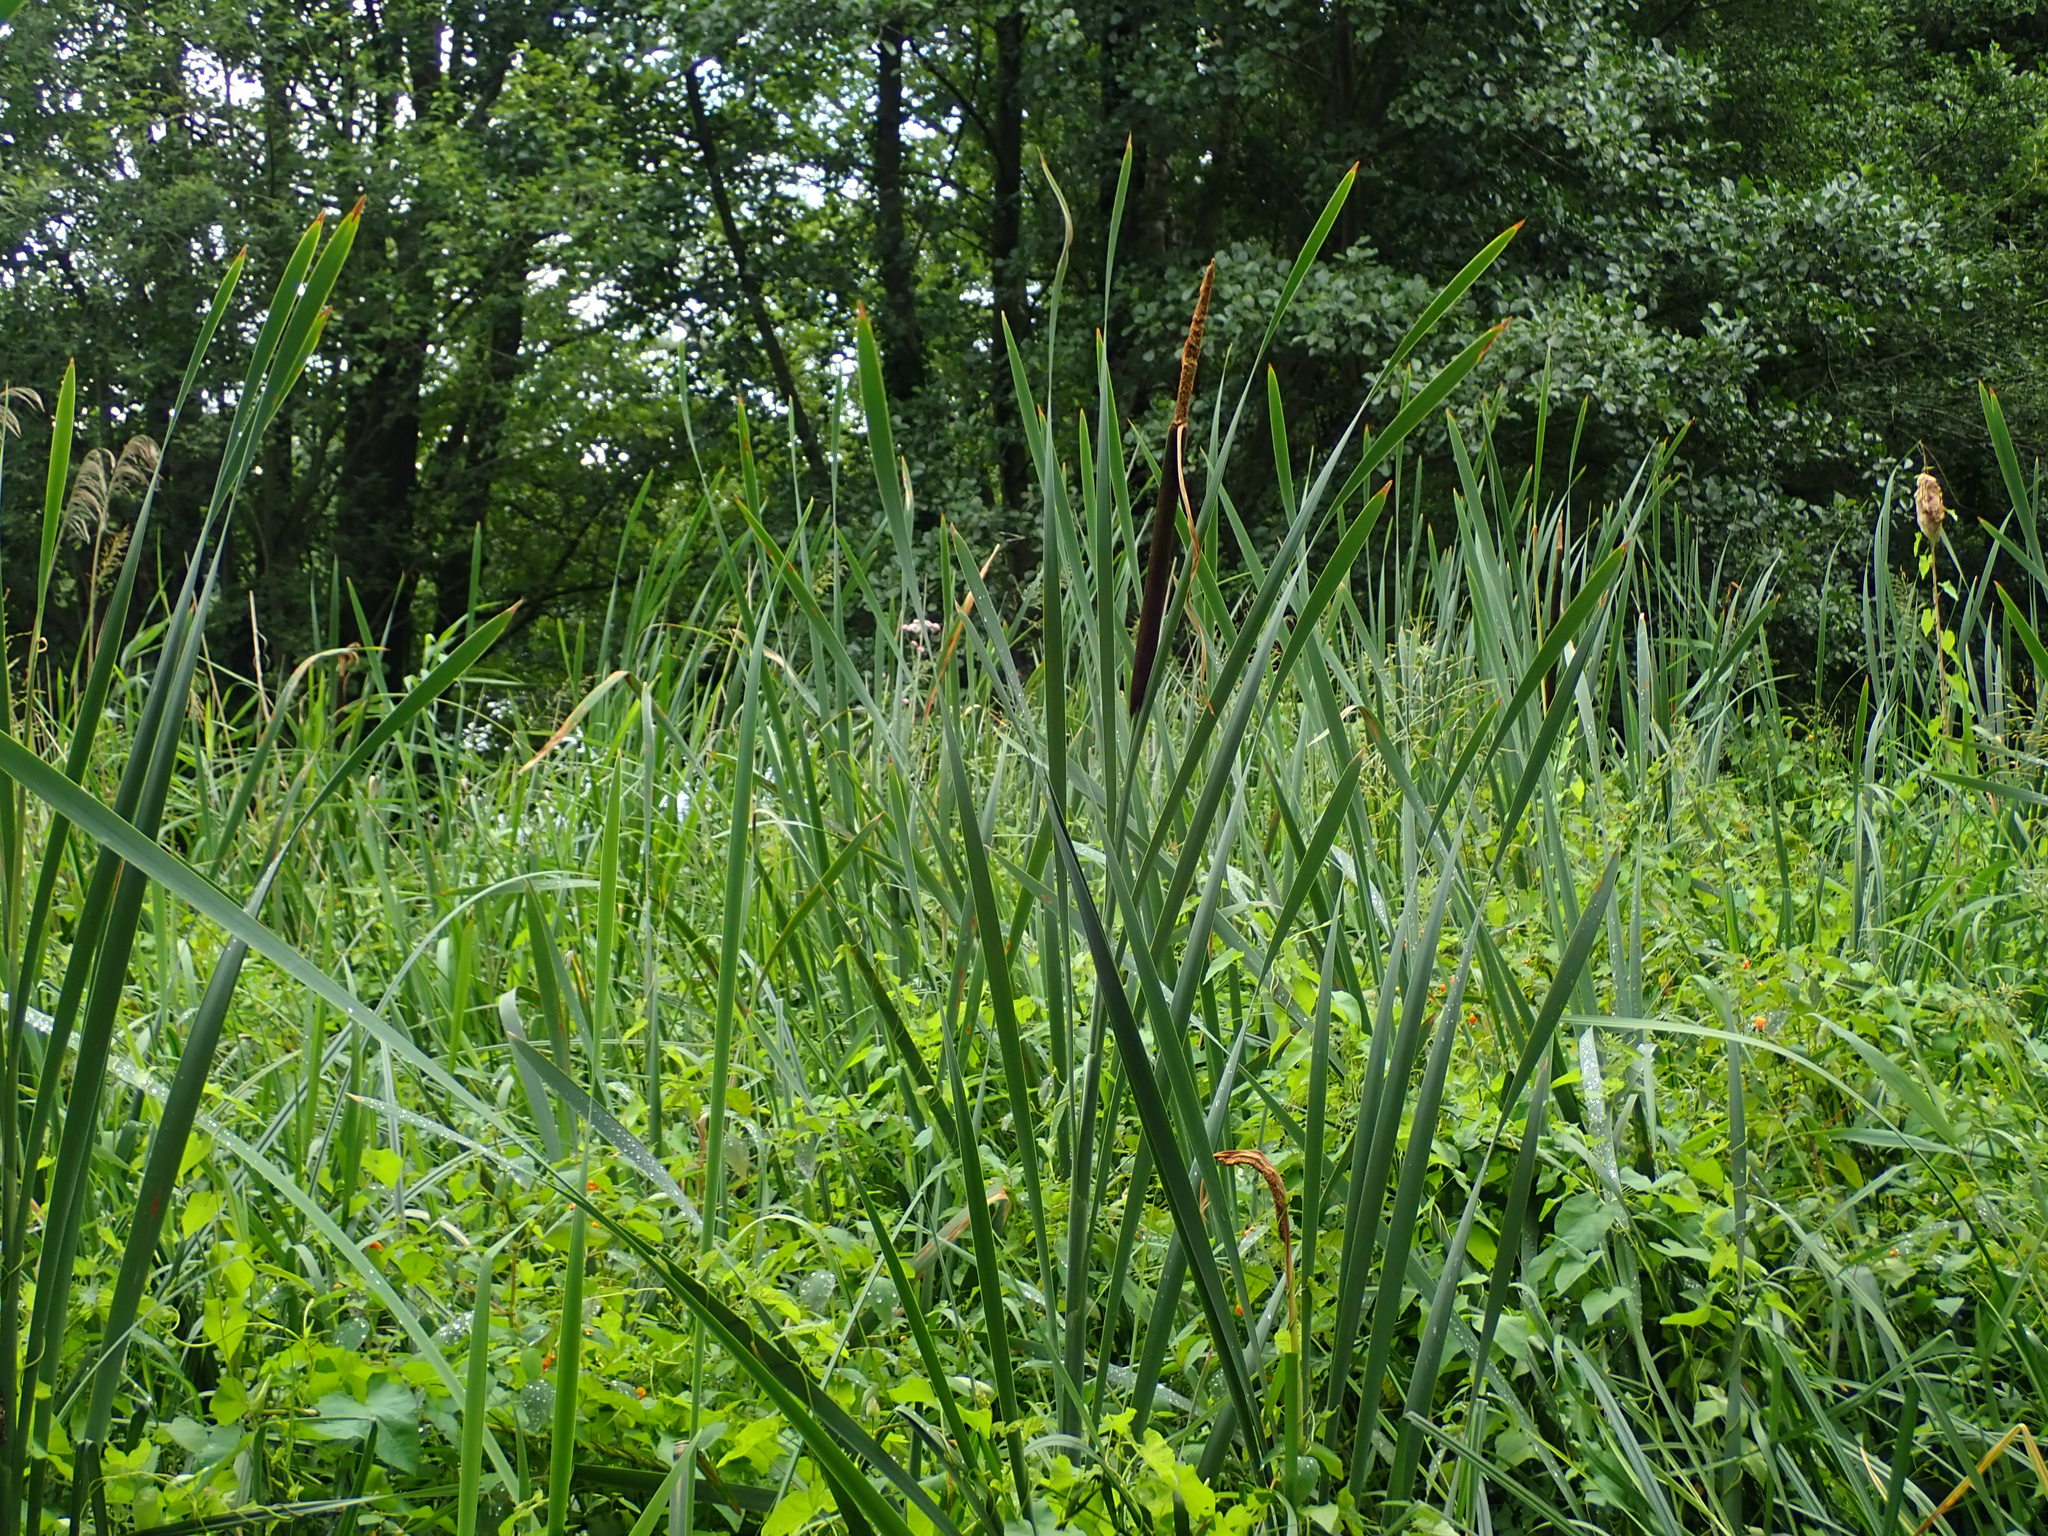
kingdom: Plantae
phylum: Tracheophyta
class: Liliopsida
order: Poales
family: Typhaceae
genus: Typha
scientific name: Typha latifolia
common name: Broadleaf cattail
